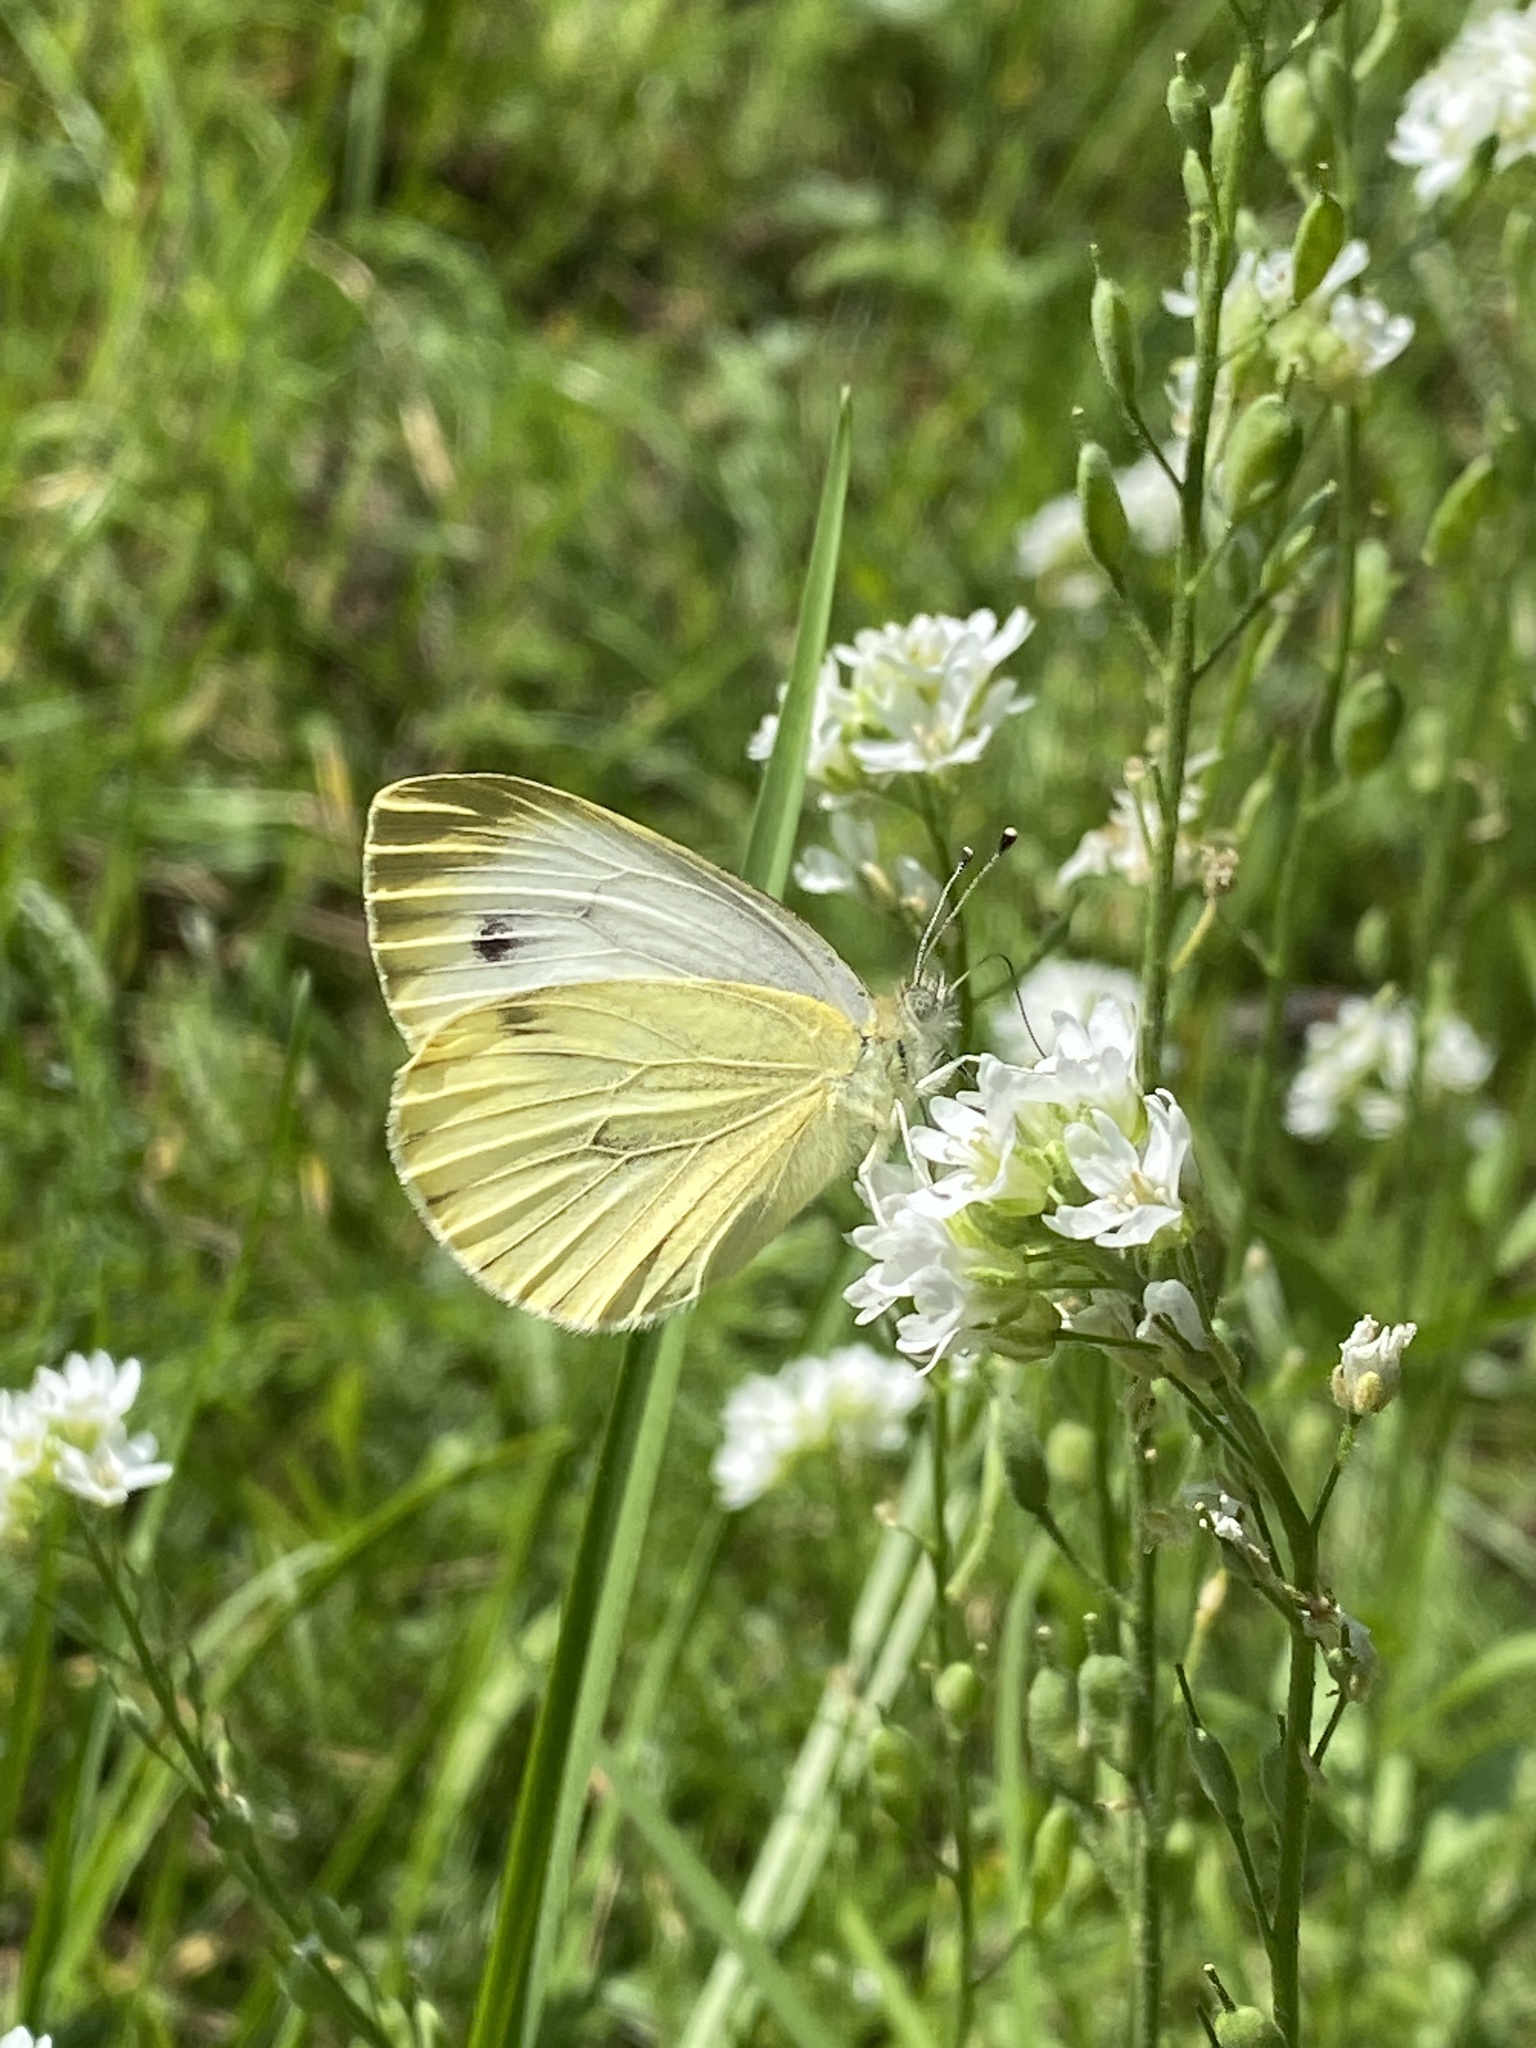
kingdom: Animalia
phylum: Arthropoda
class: Insecta
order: Lepidoptera
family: Pieridae
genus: Pieris
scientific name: Pieris napi
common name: Green-veined white
